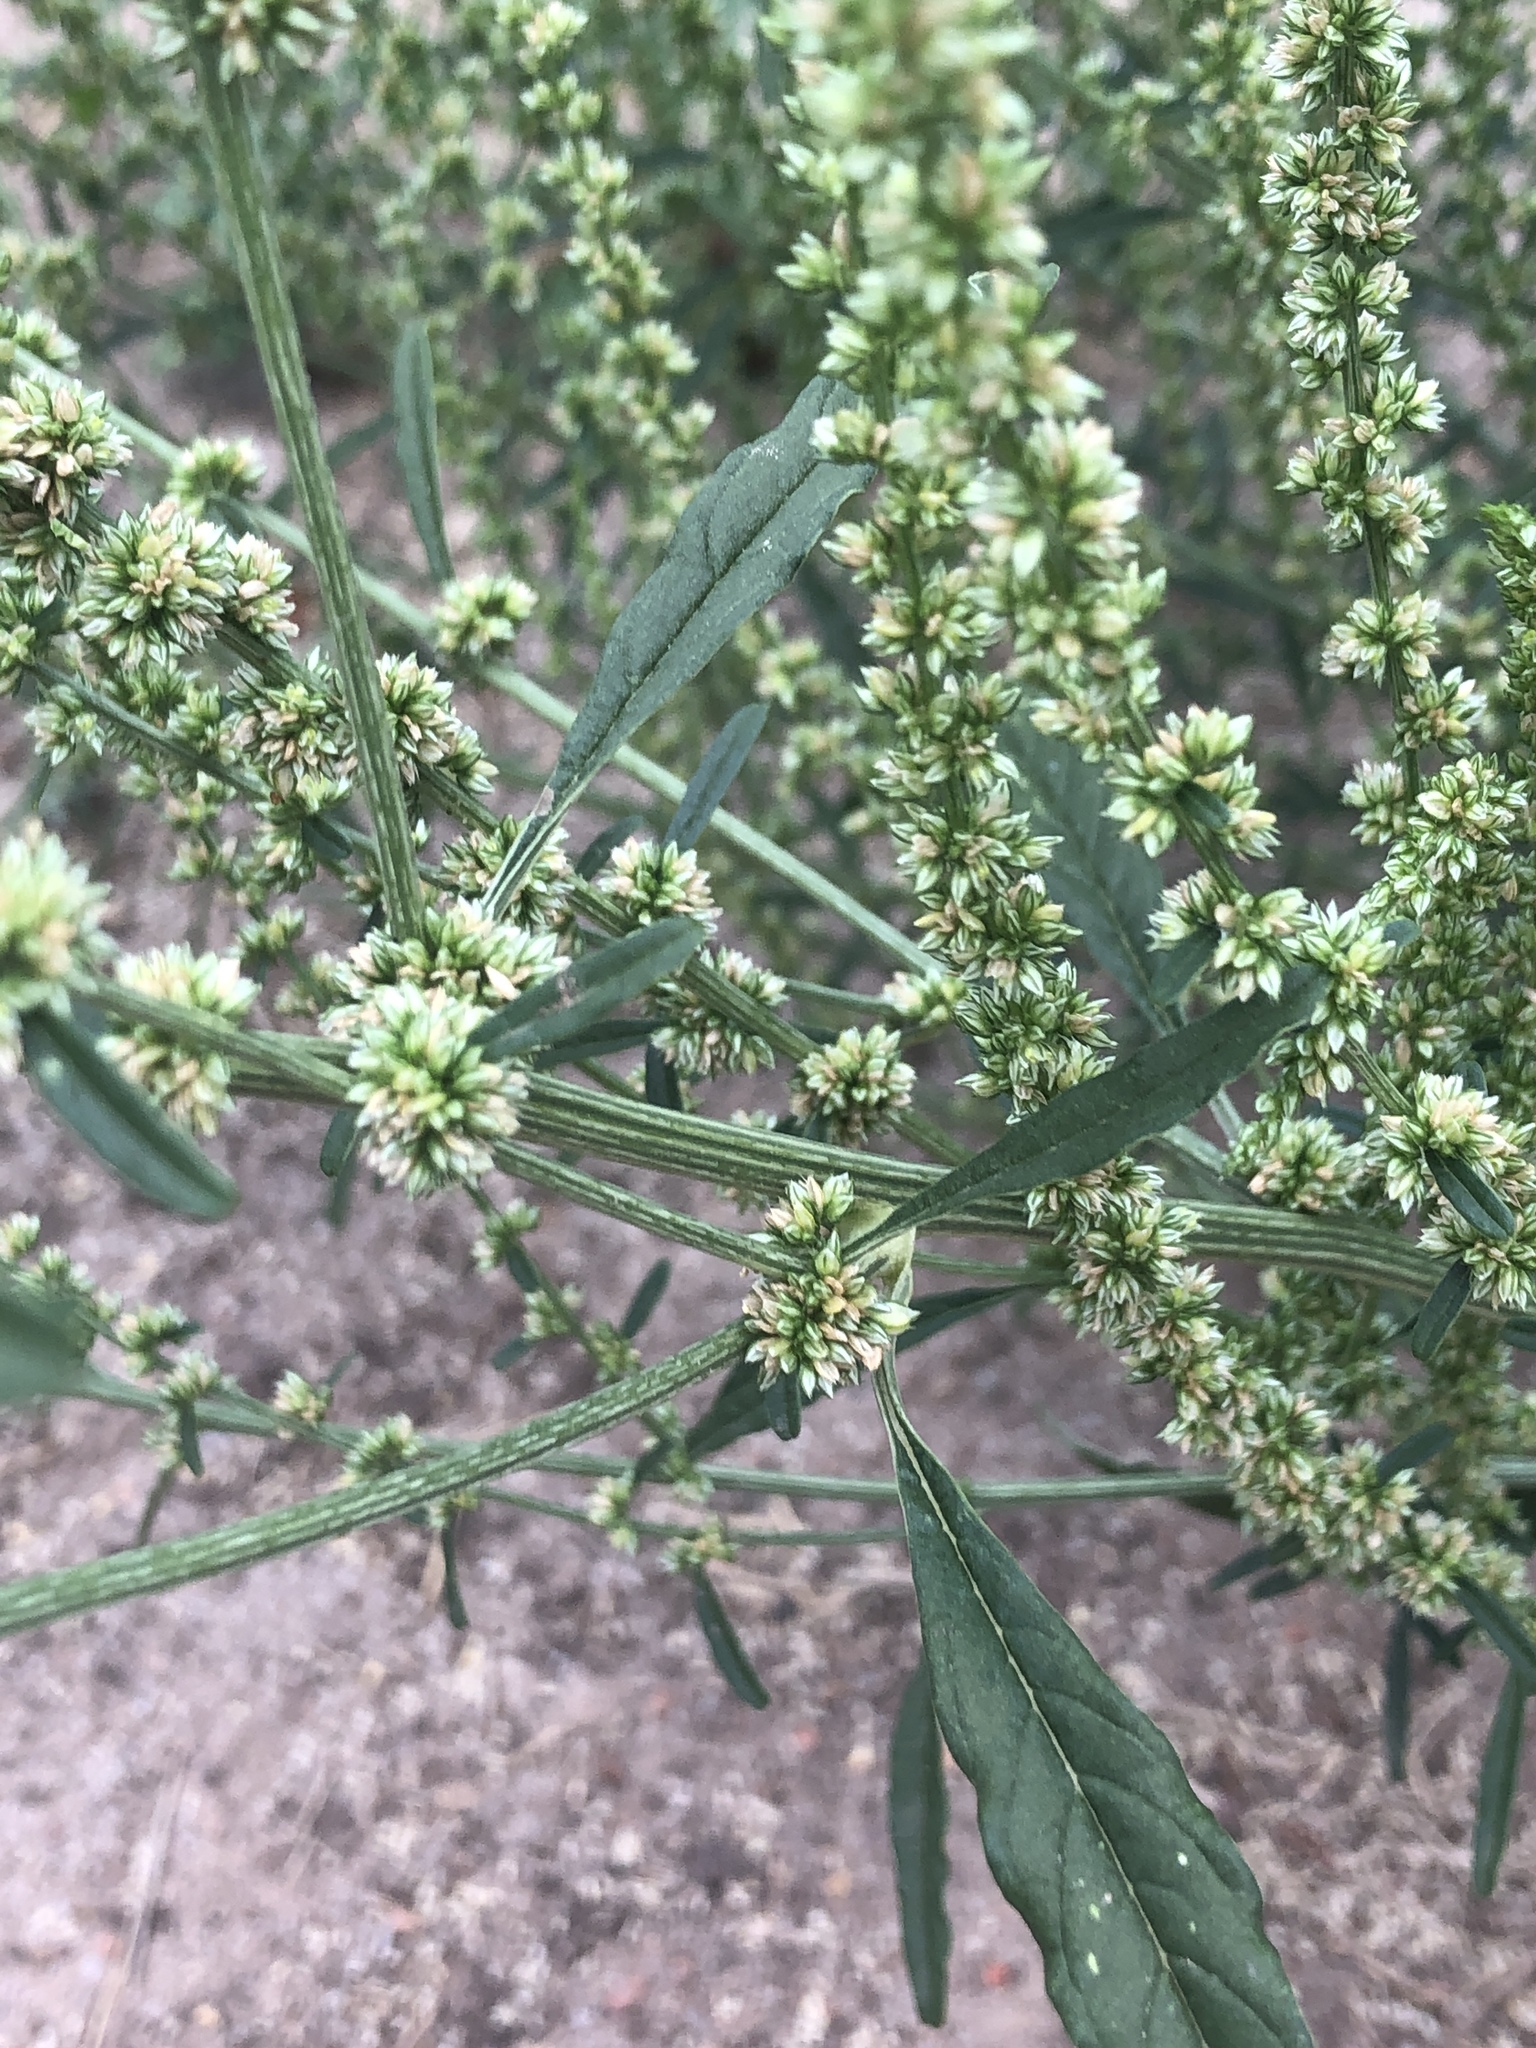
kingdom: Plantae
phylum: Tracheophyta
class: Magnoliopsida
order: Caryophyllales
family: Amaranthaceae
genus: Amaranthus
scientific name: Amaranthus palmeri
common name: Dioecious amaranth
